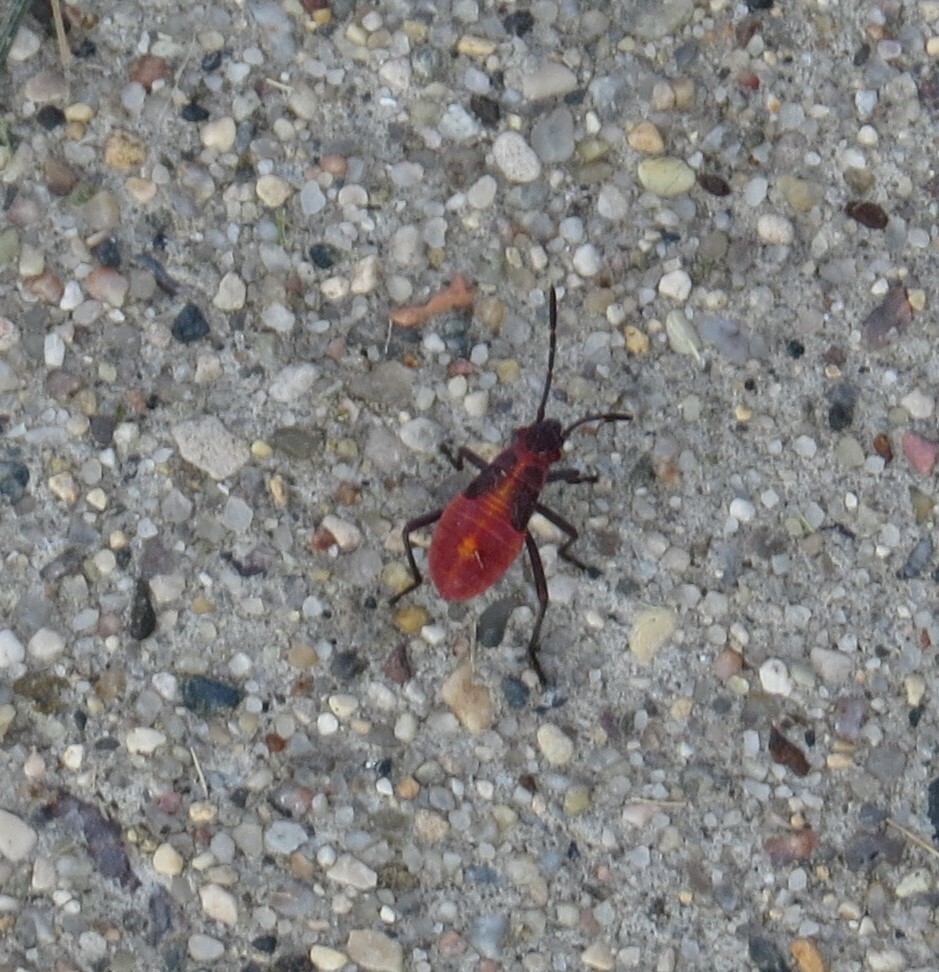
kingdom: Animalia
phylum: Arthropoda
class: Insecta
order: Hemiptera
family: Rhopalidae
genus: Boisea
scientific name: Boisea trivittata
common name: Boxelder bug
